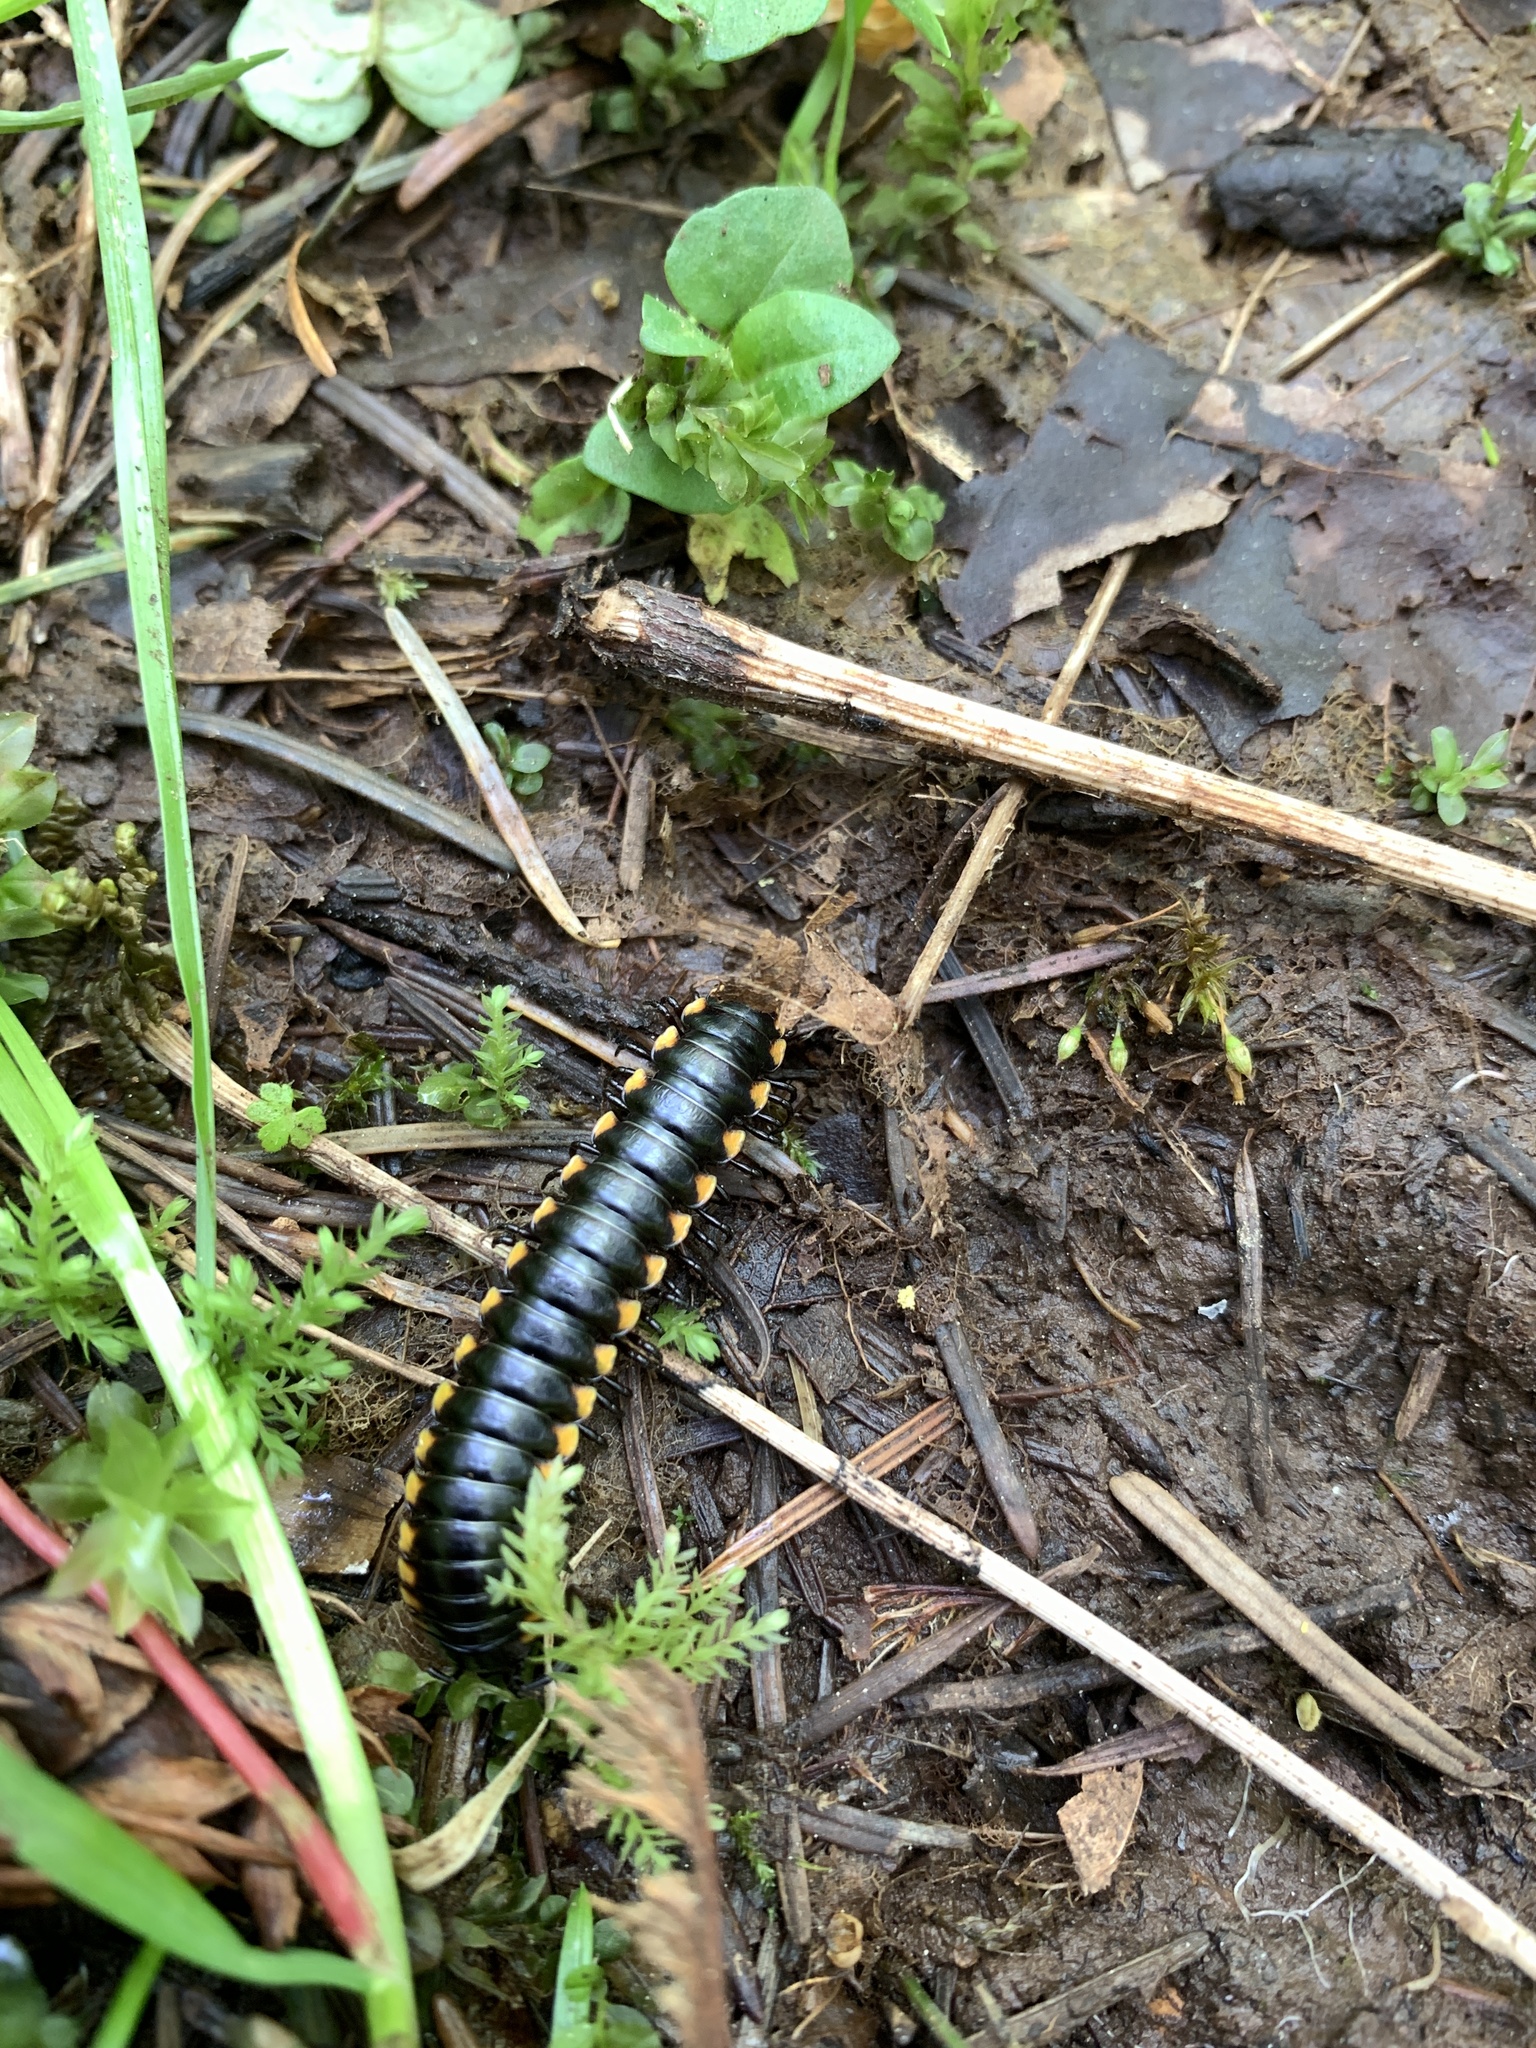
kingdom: Animalia
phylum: Arthropoda
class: Diplopoda
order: Polydesmida
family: Xystodesmidae
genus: Harpaphe
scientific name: Harpaphe haydeniana
